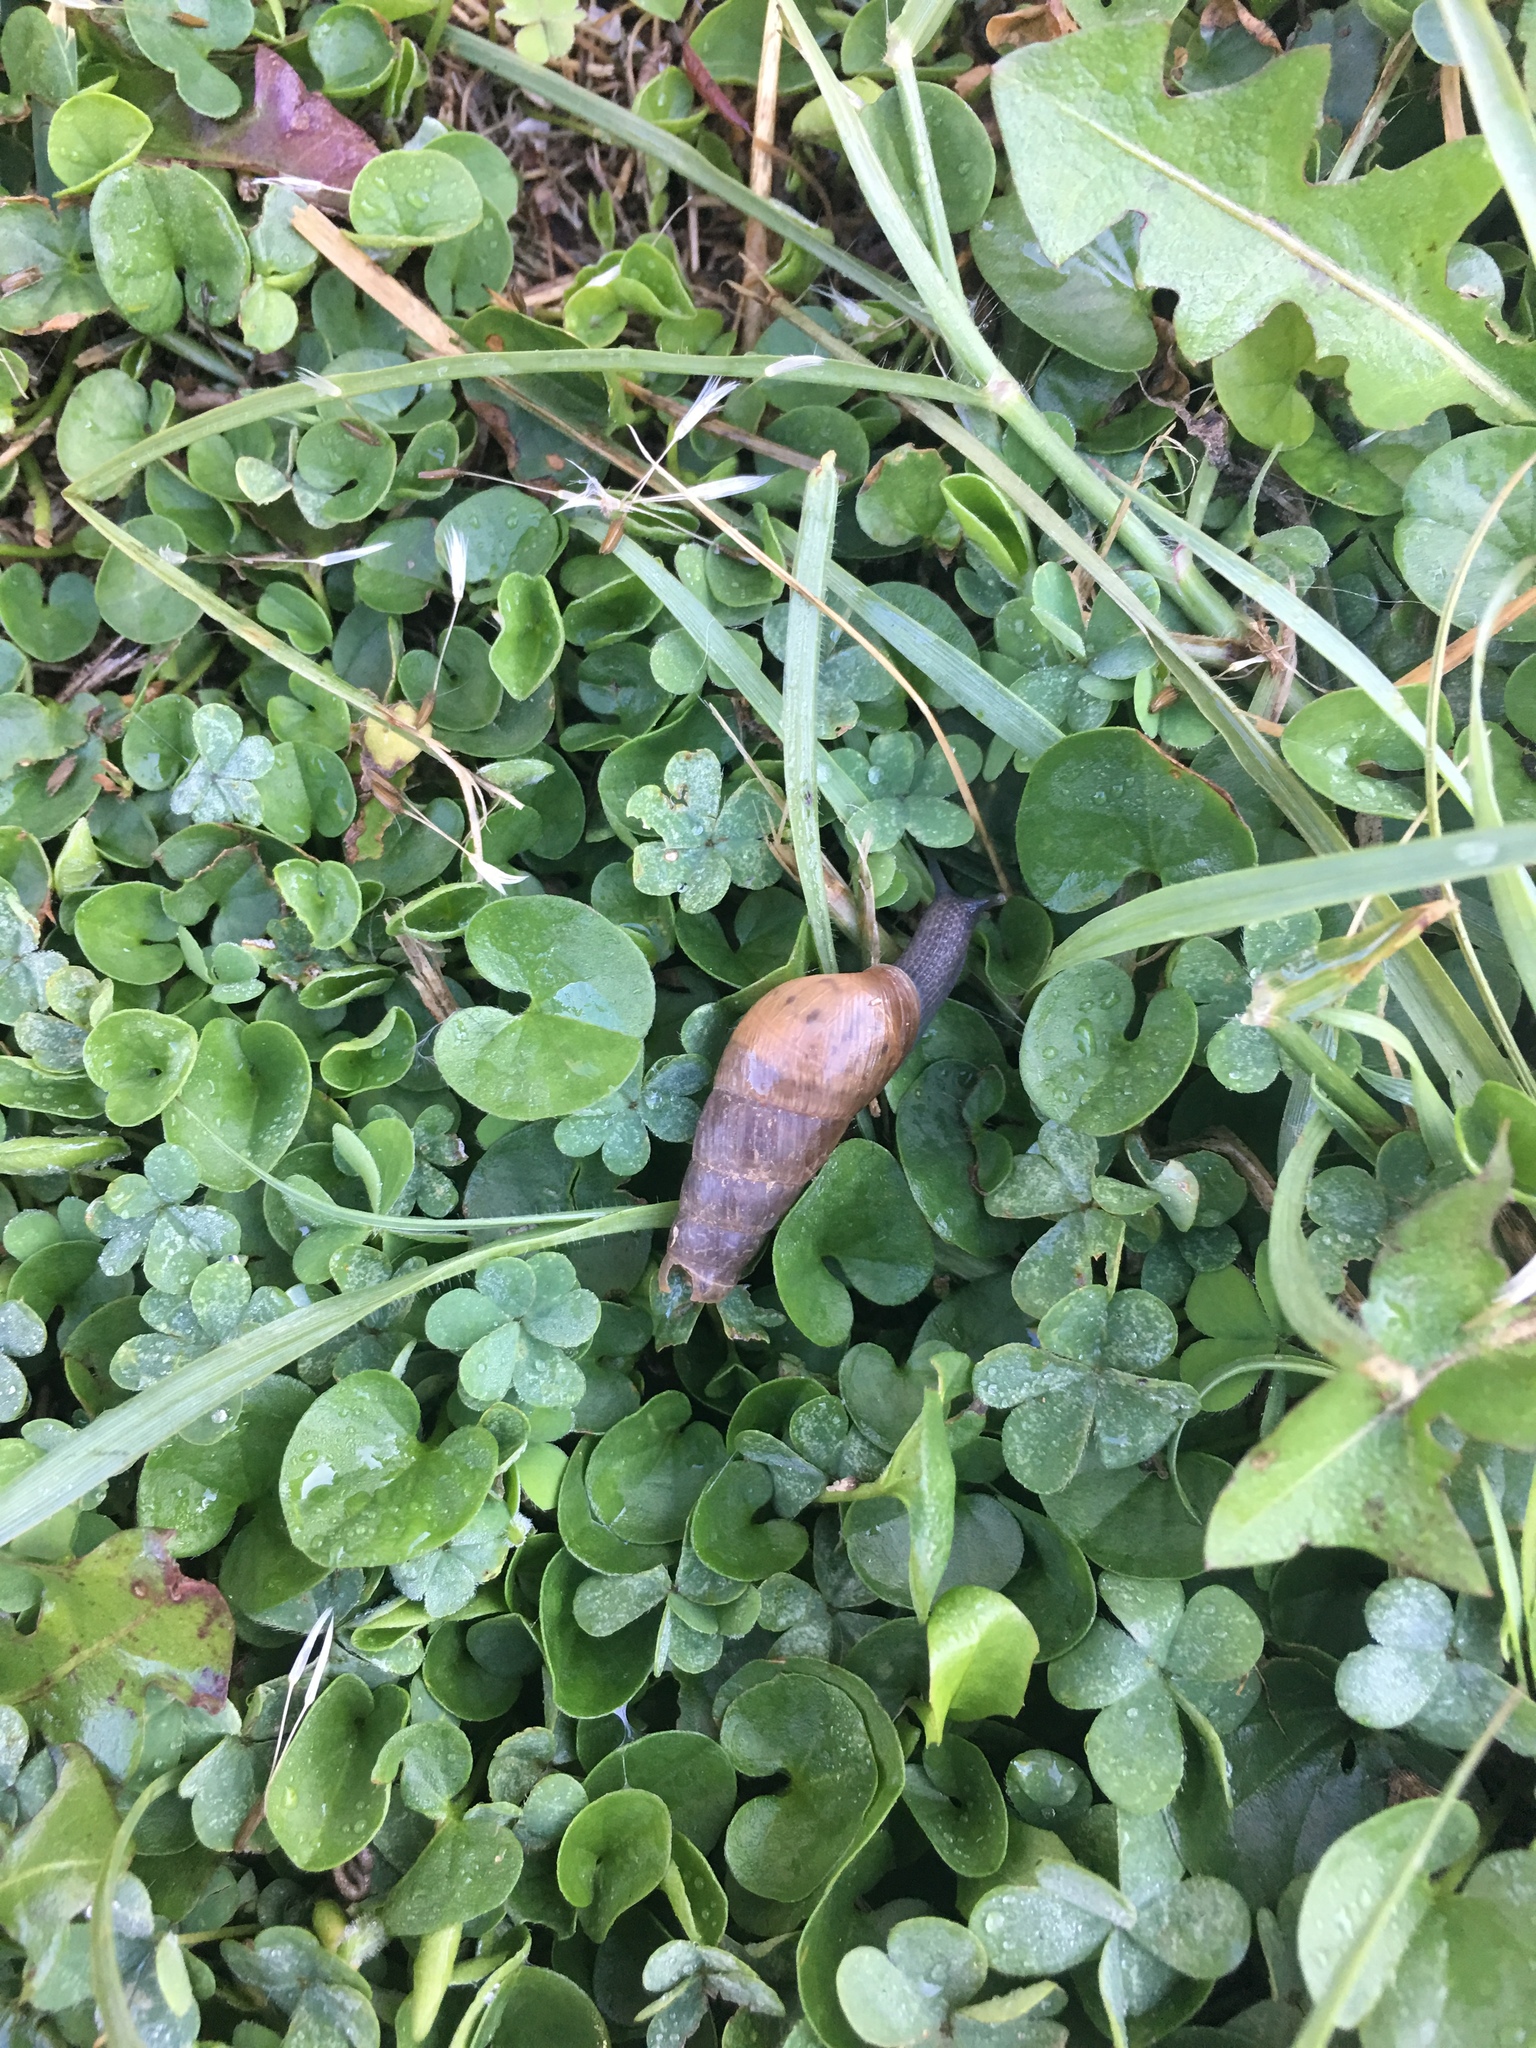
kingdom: Animalia
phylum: Mollusca
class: Gastropoda
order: Stylommatophora
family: Achatinidae
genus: Rumina
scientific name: Rumina decollata
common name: Decollate snail
